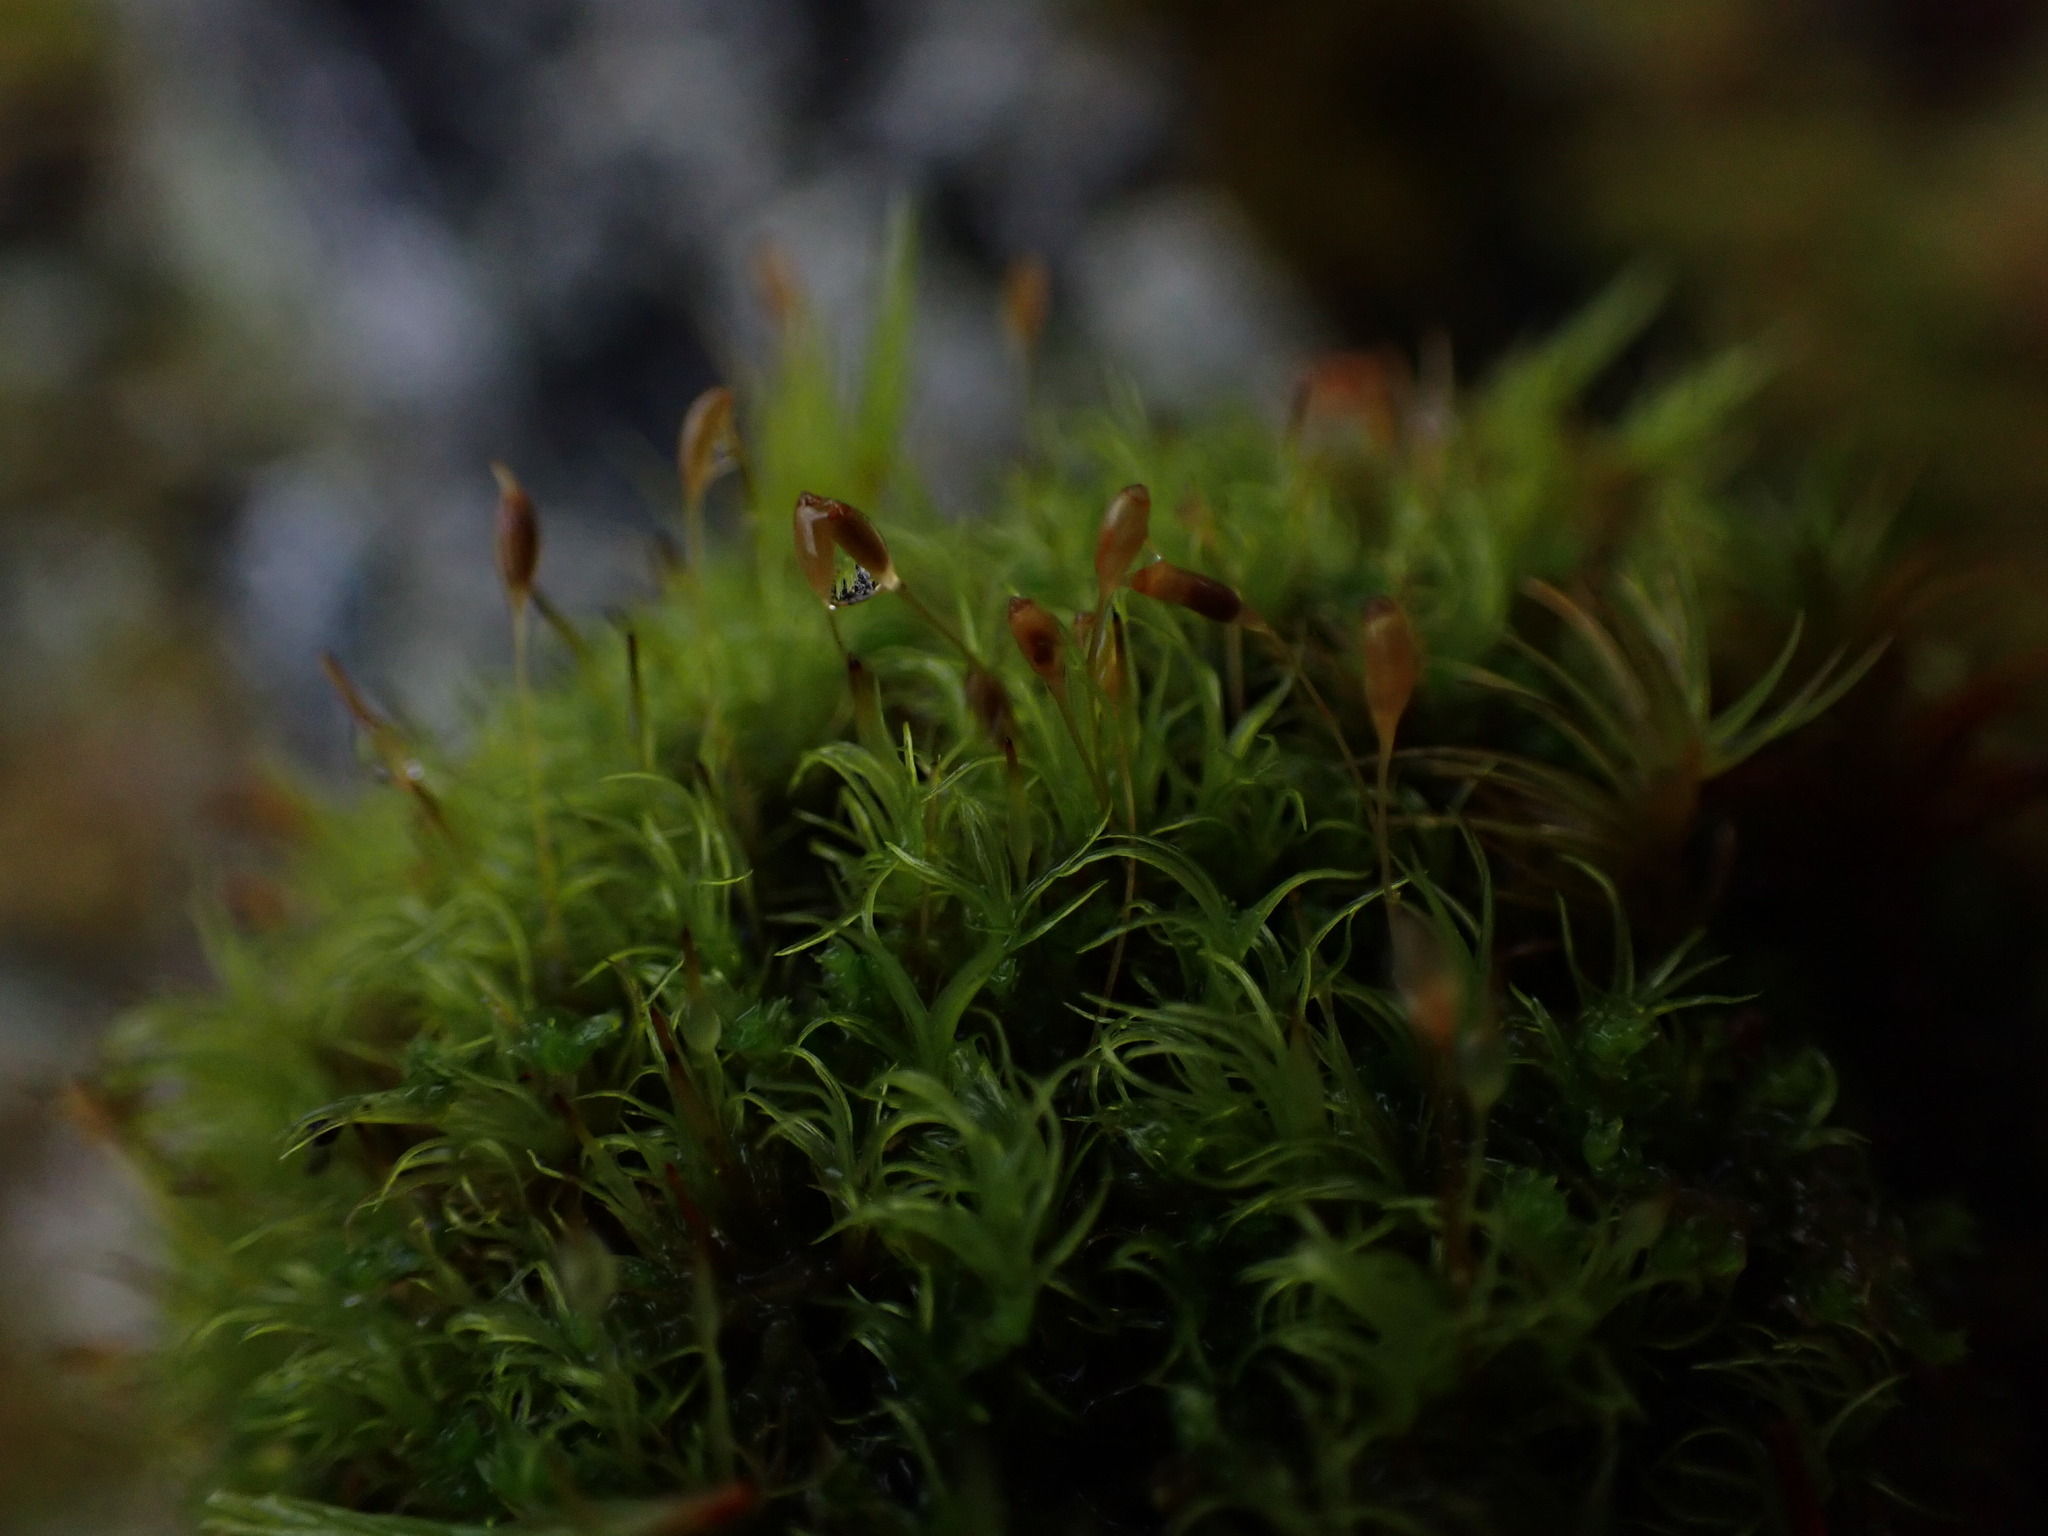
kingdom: Plantae
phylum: Bryophyta
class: Bryopsida
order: Dicranales
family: Rhabdoweisiaceae
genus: Cynodontium
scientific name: Cynodontium jenneri
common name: Jenner's dog-tooth
